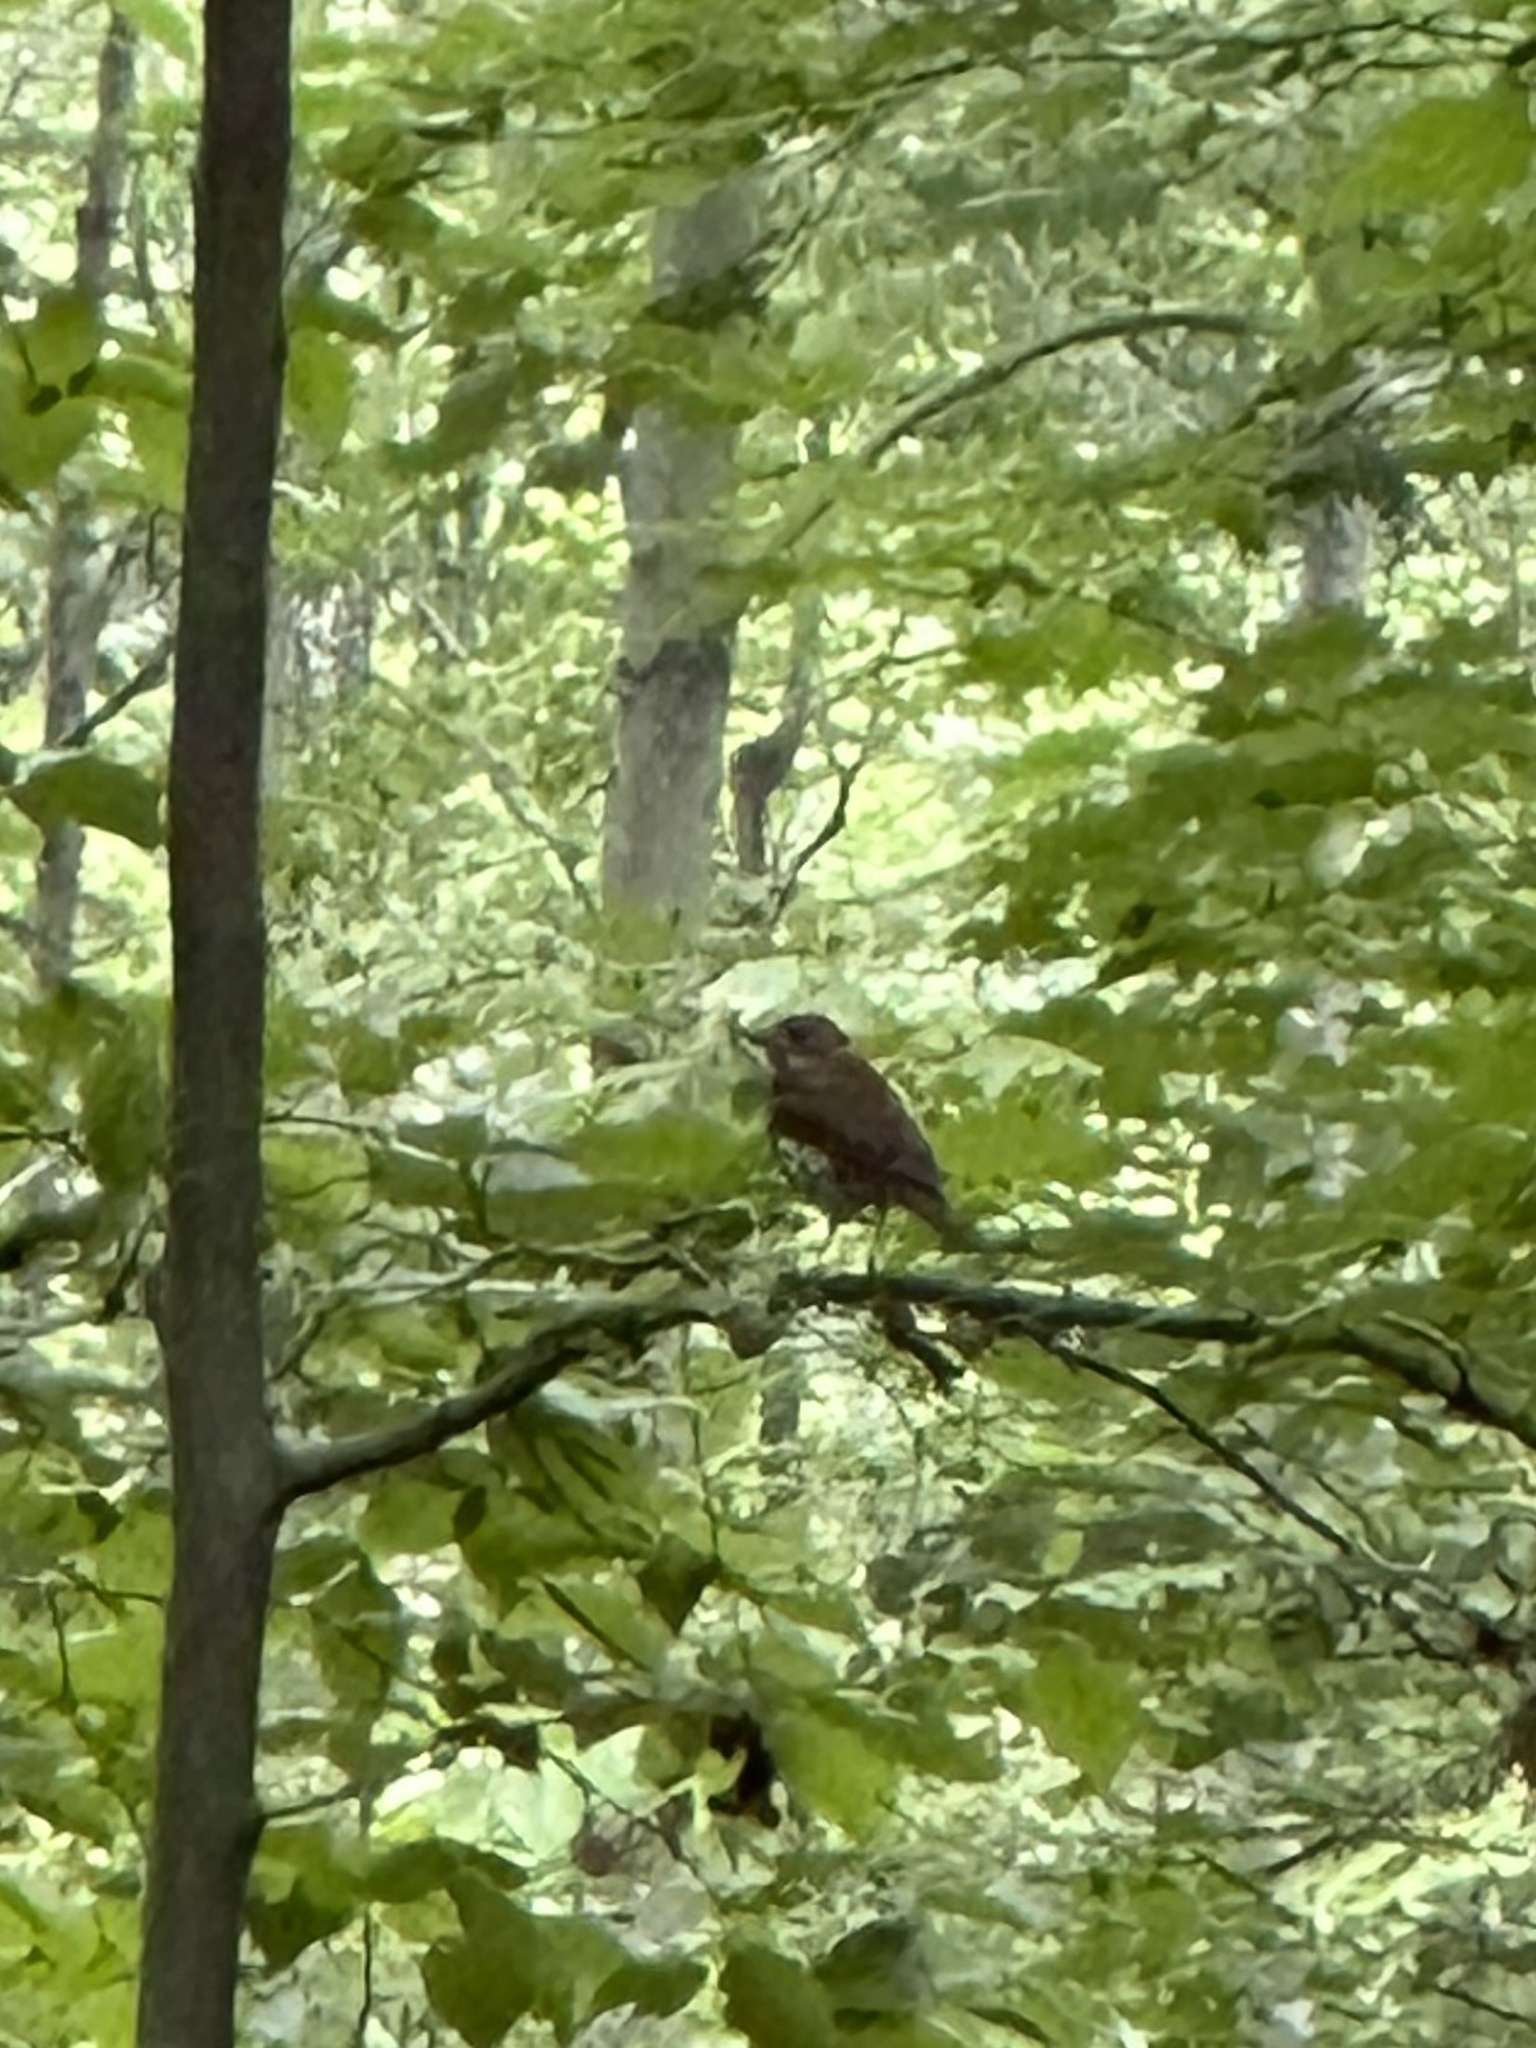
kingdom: Animalia
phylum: Chordata
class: Aves
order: Passeriformes
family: Turdidae
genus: Hylocichla
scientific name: Hylocichla mustelina
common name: Wood thrush
